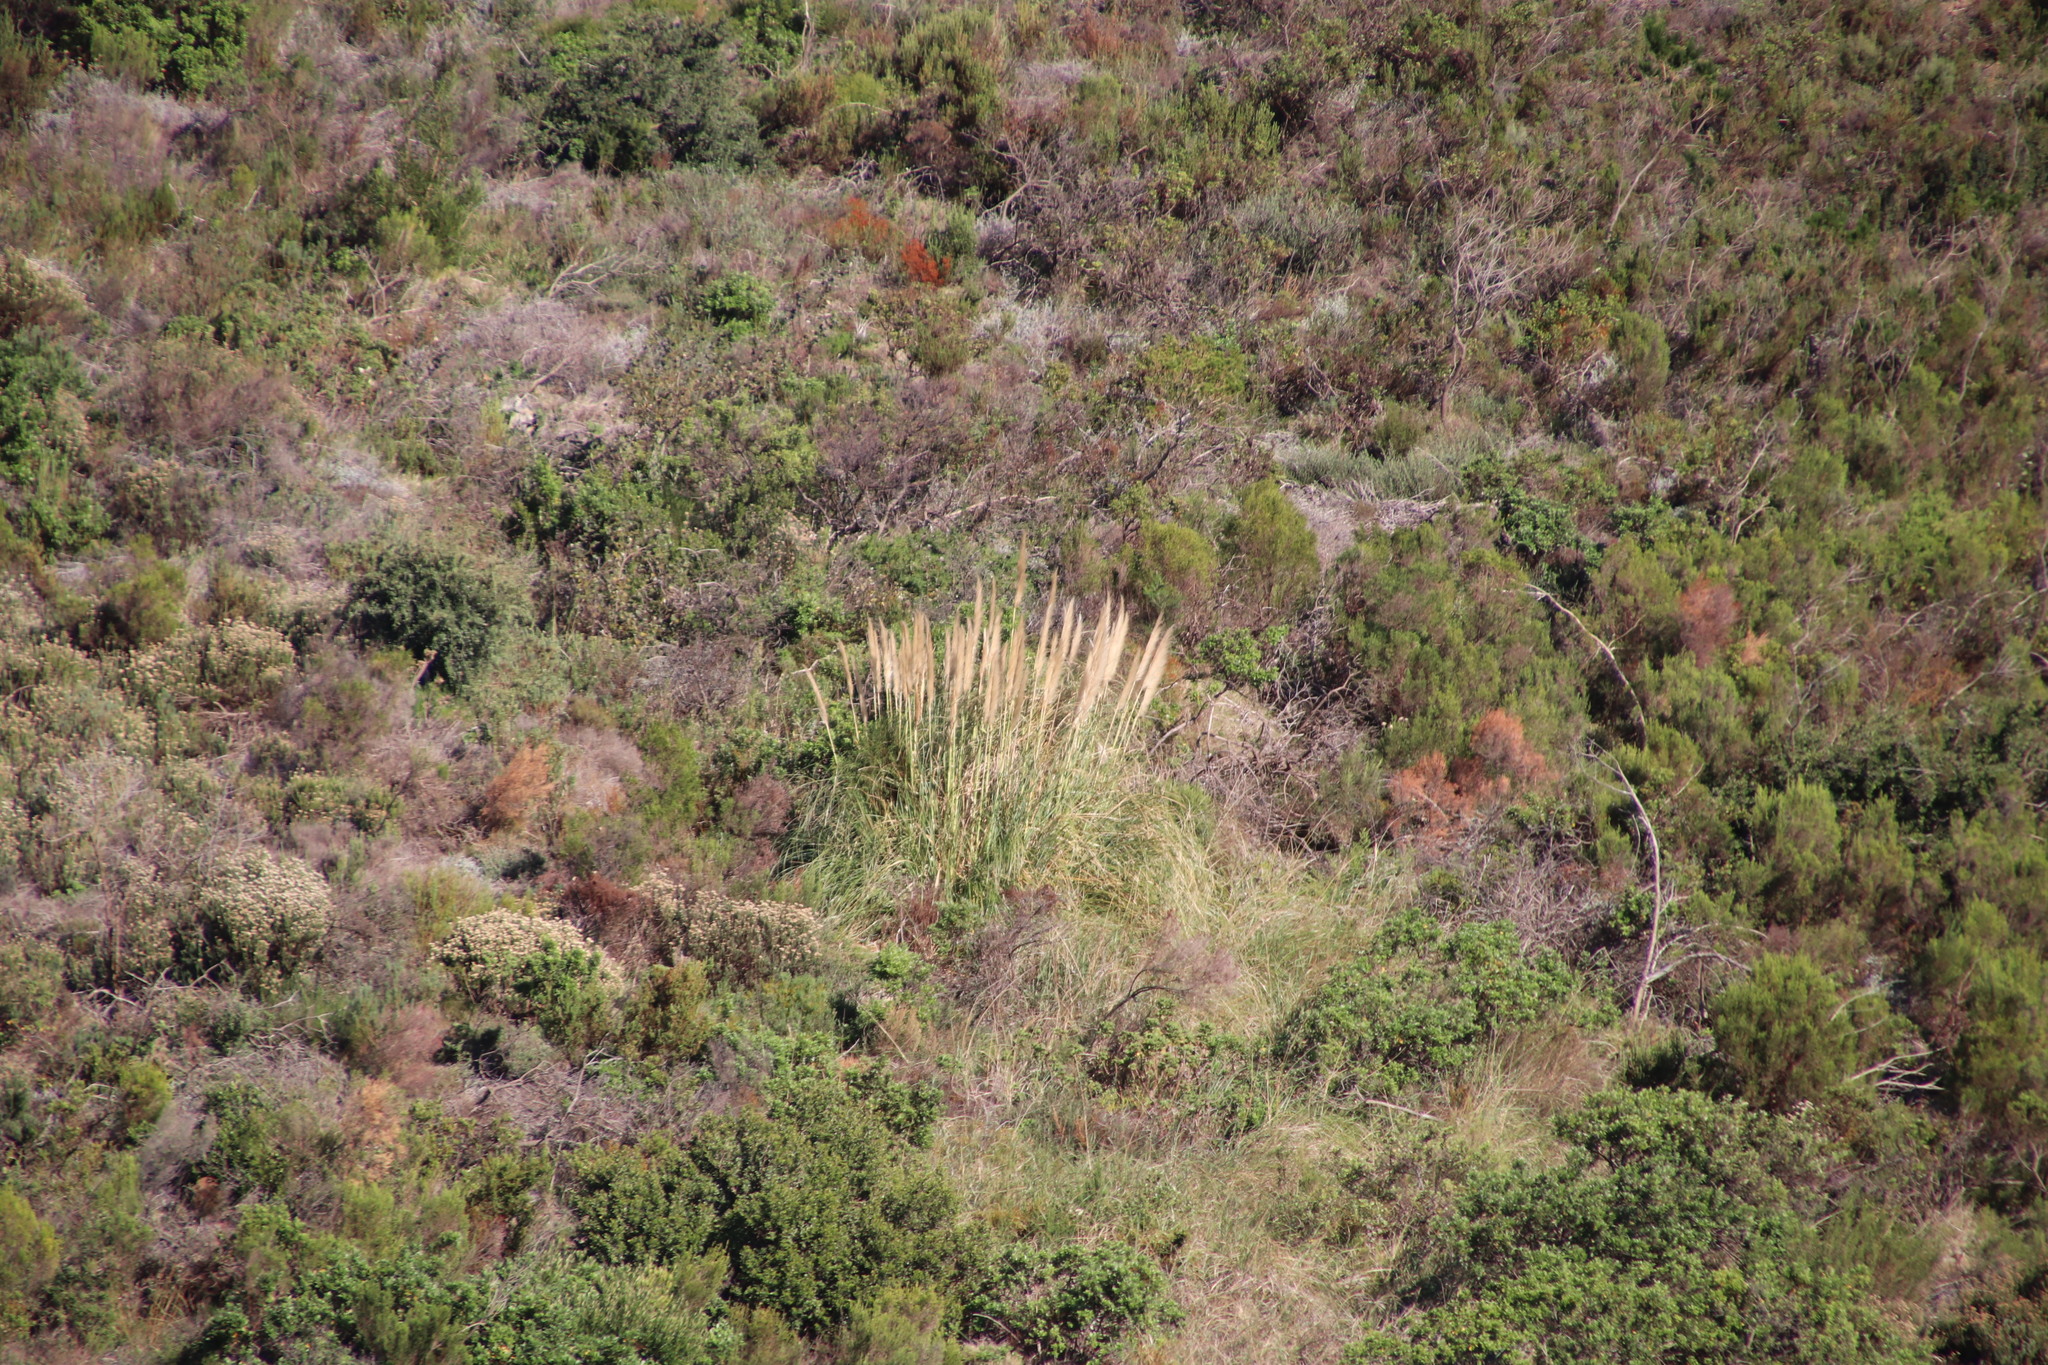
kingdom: Plantae
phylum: Tracheophyta
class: Liliopsida
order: Poales
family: Poaceae
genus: Cortaderia
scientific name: Cortaderia selloana
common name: Uruguayan pampas grass
